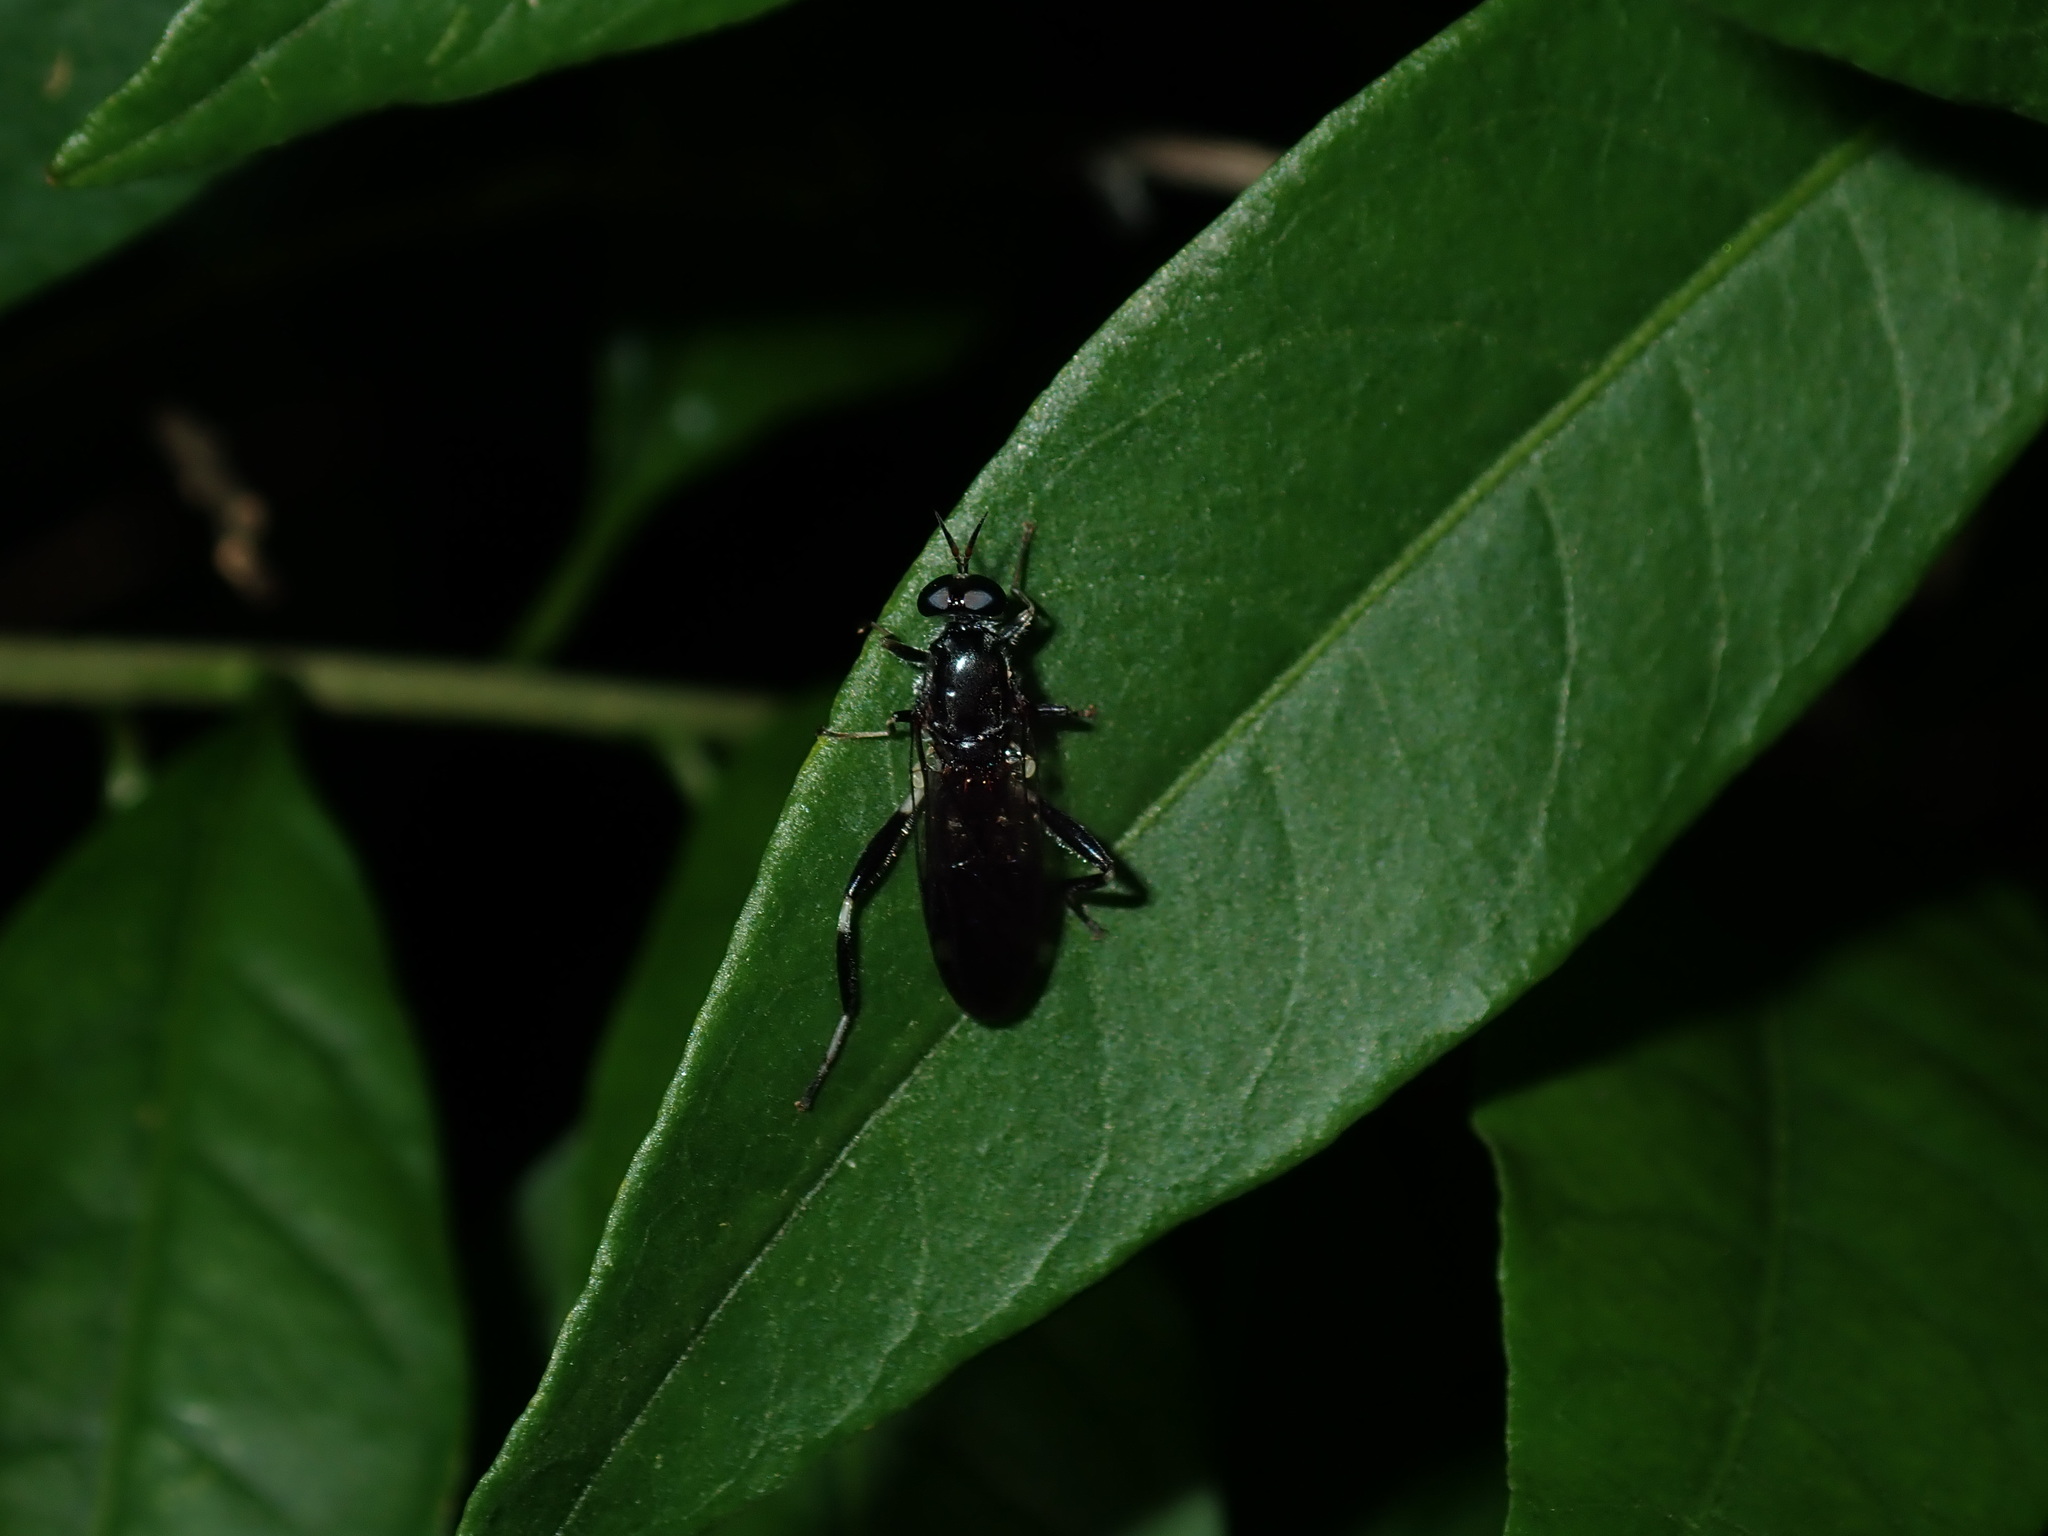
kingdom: Animalia
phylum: Arthropoda
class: Insecta
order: Diptera
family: Stratiomyidae
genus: Exaireta
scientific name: Exaireta spinigera
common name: Blue soldier fly
